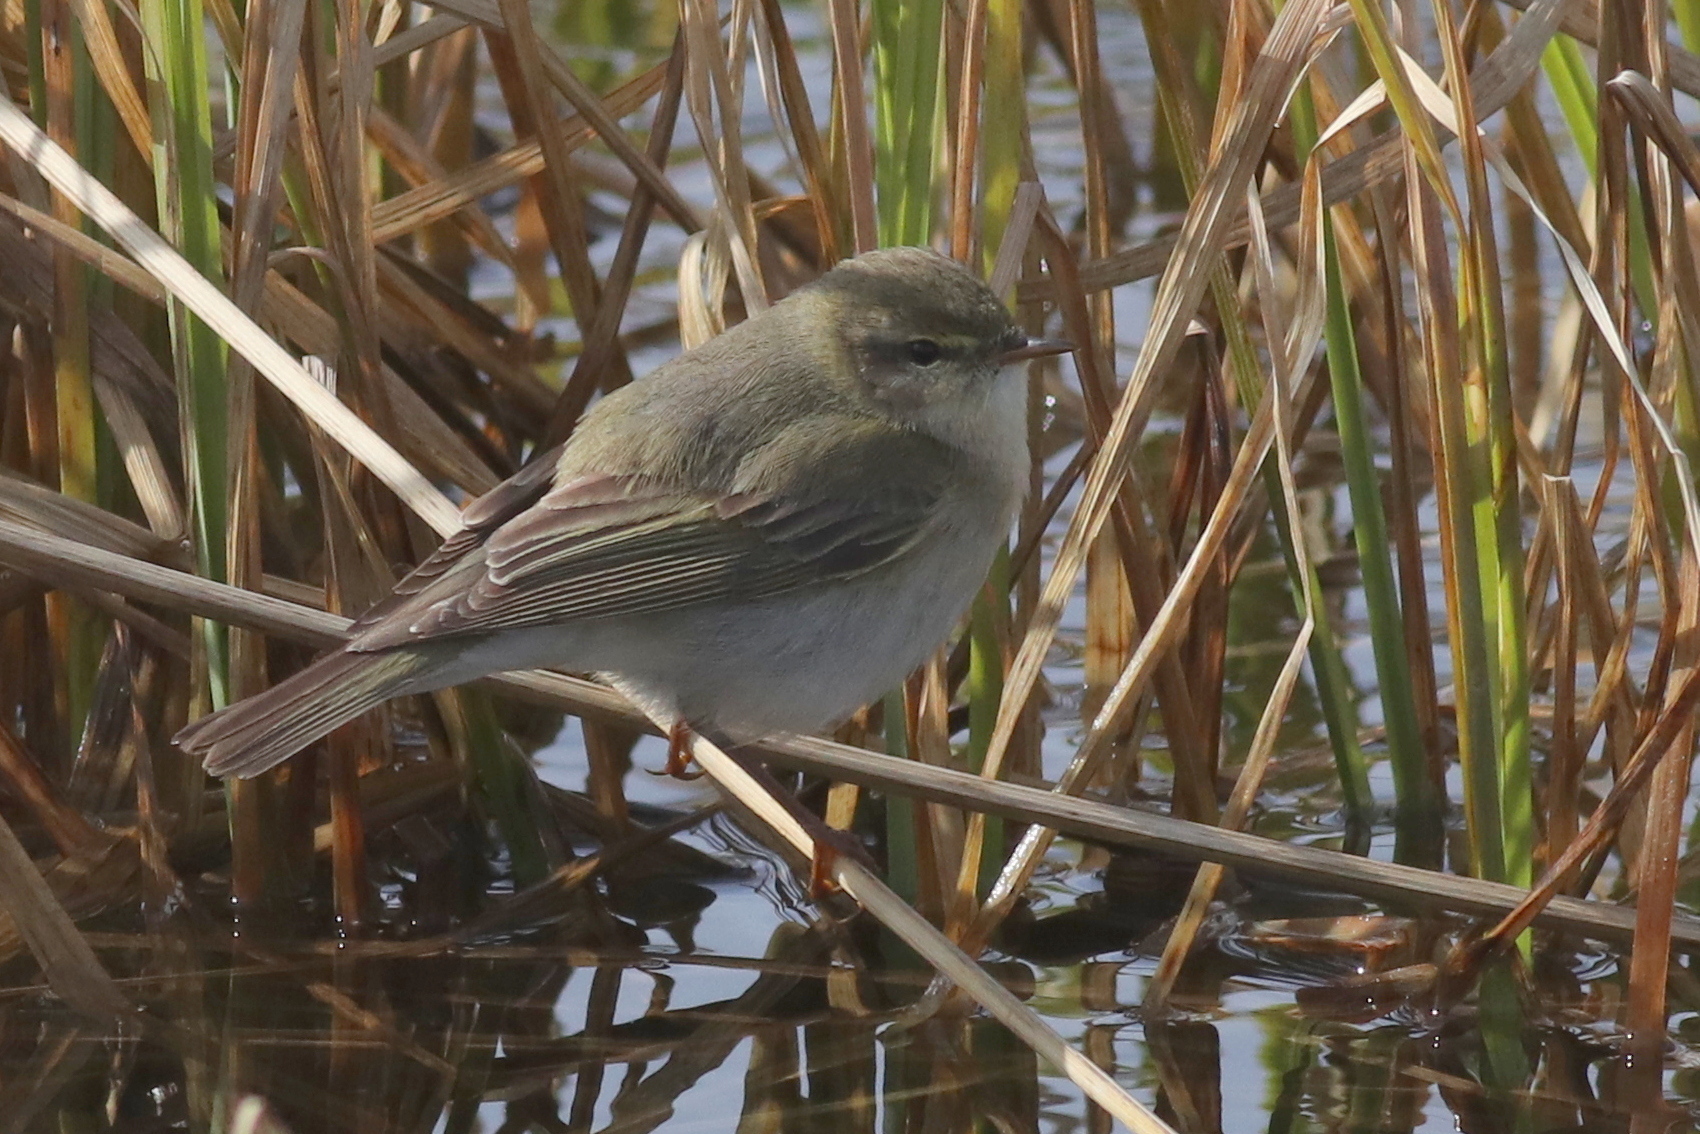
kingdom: Animalia
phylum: Chordata
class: Aves
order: Passeriformes
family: Phylloscopidae
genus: Phylloscopus
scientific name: Phylloscopus trochilus
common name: Willow warbler
